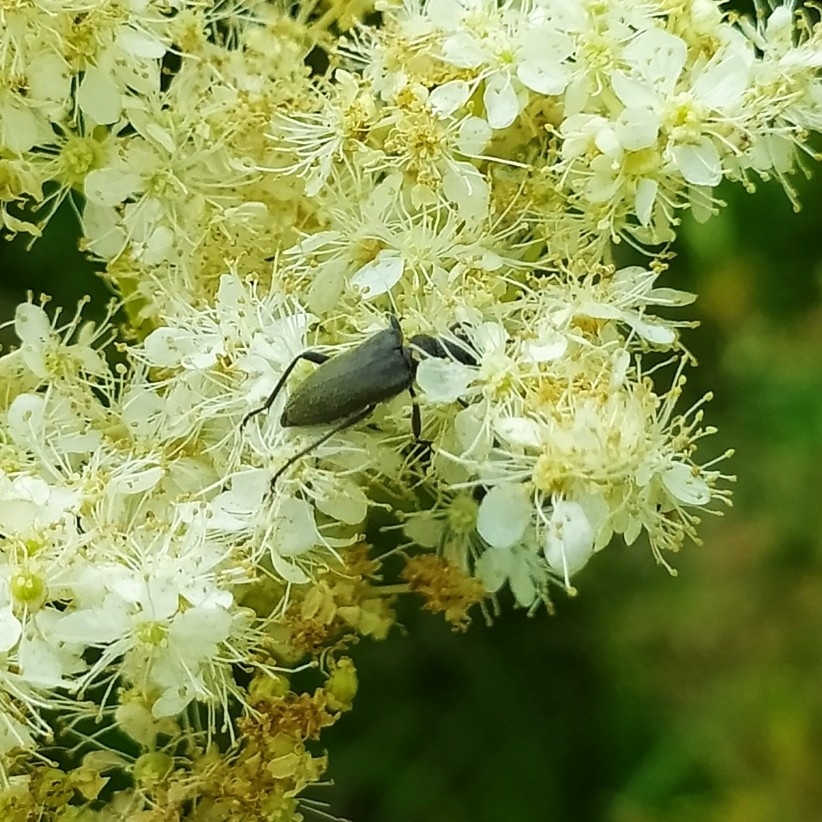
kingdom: Animalia
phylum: Arthropoda
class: Insecta
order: Coleoptera
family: Cerambycidae
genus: Acmaeops
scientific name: Acmaeops smaragdulus
